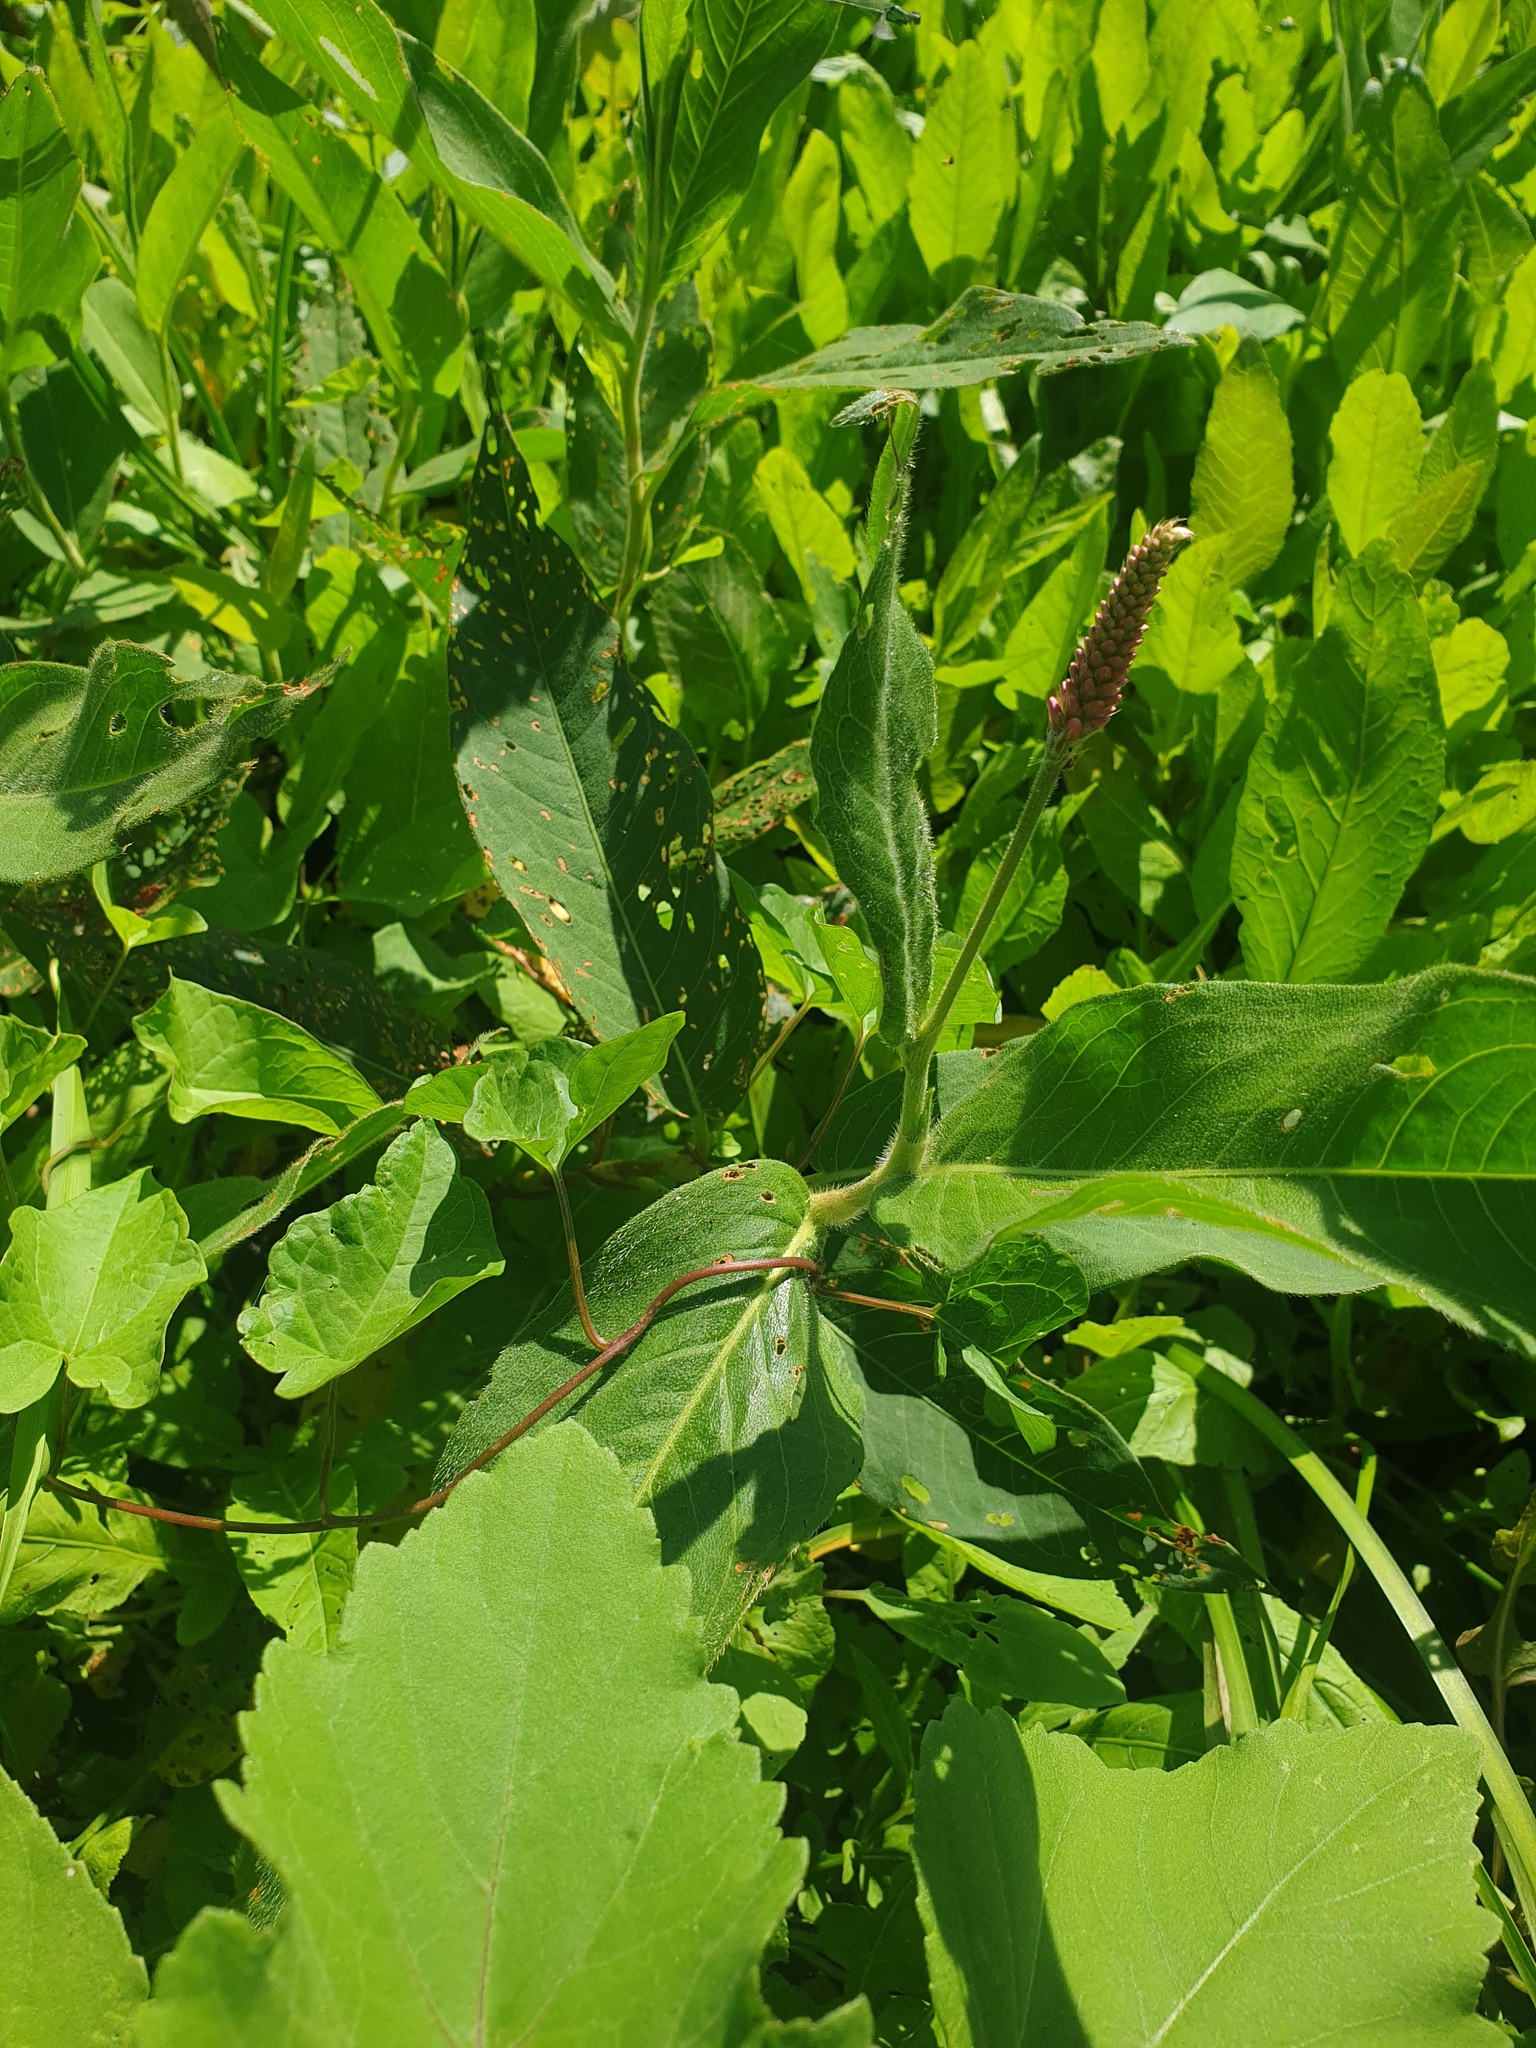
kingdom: Plantae
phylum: Tracheophyta
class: Magnoliopsida
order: Caryophyllales
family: Polygonaceae
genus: Persicaria
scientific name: Persicaria amphibia
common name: Amphibious bistort
